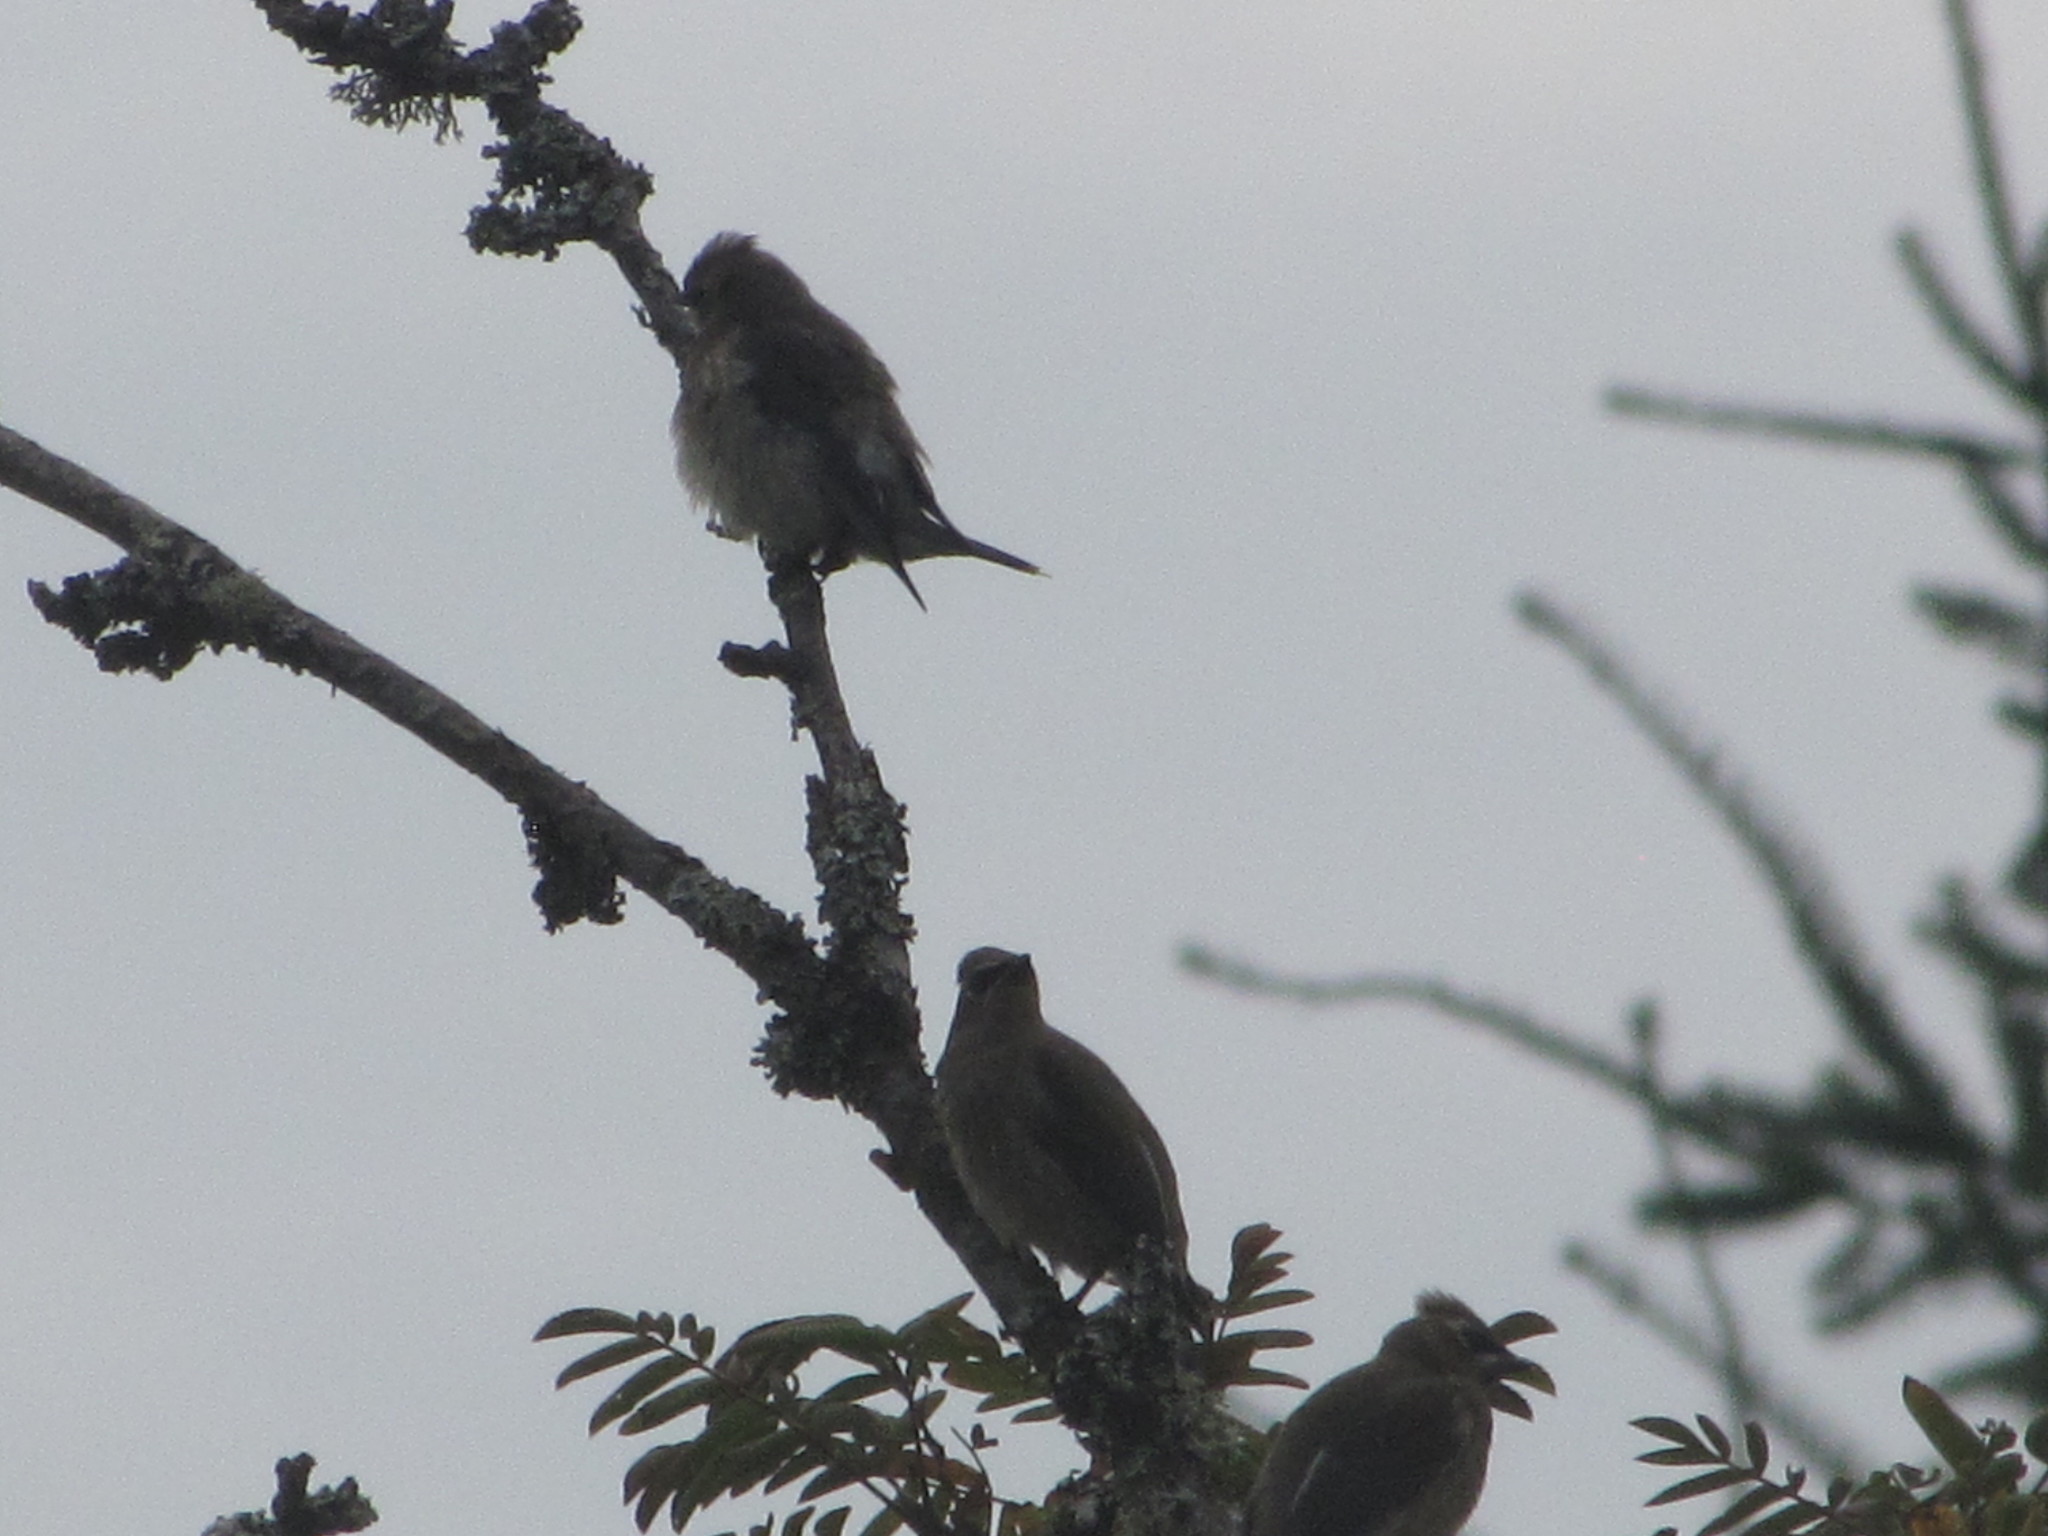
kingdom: Animalia
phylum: Chordata
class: Aves
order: Passeriformes
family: Bombycillidae
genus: Bombycilla
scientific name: Bombycilla cedrorum
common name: Cedar waxwing
